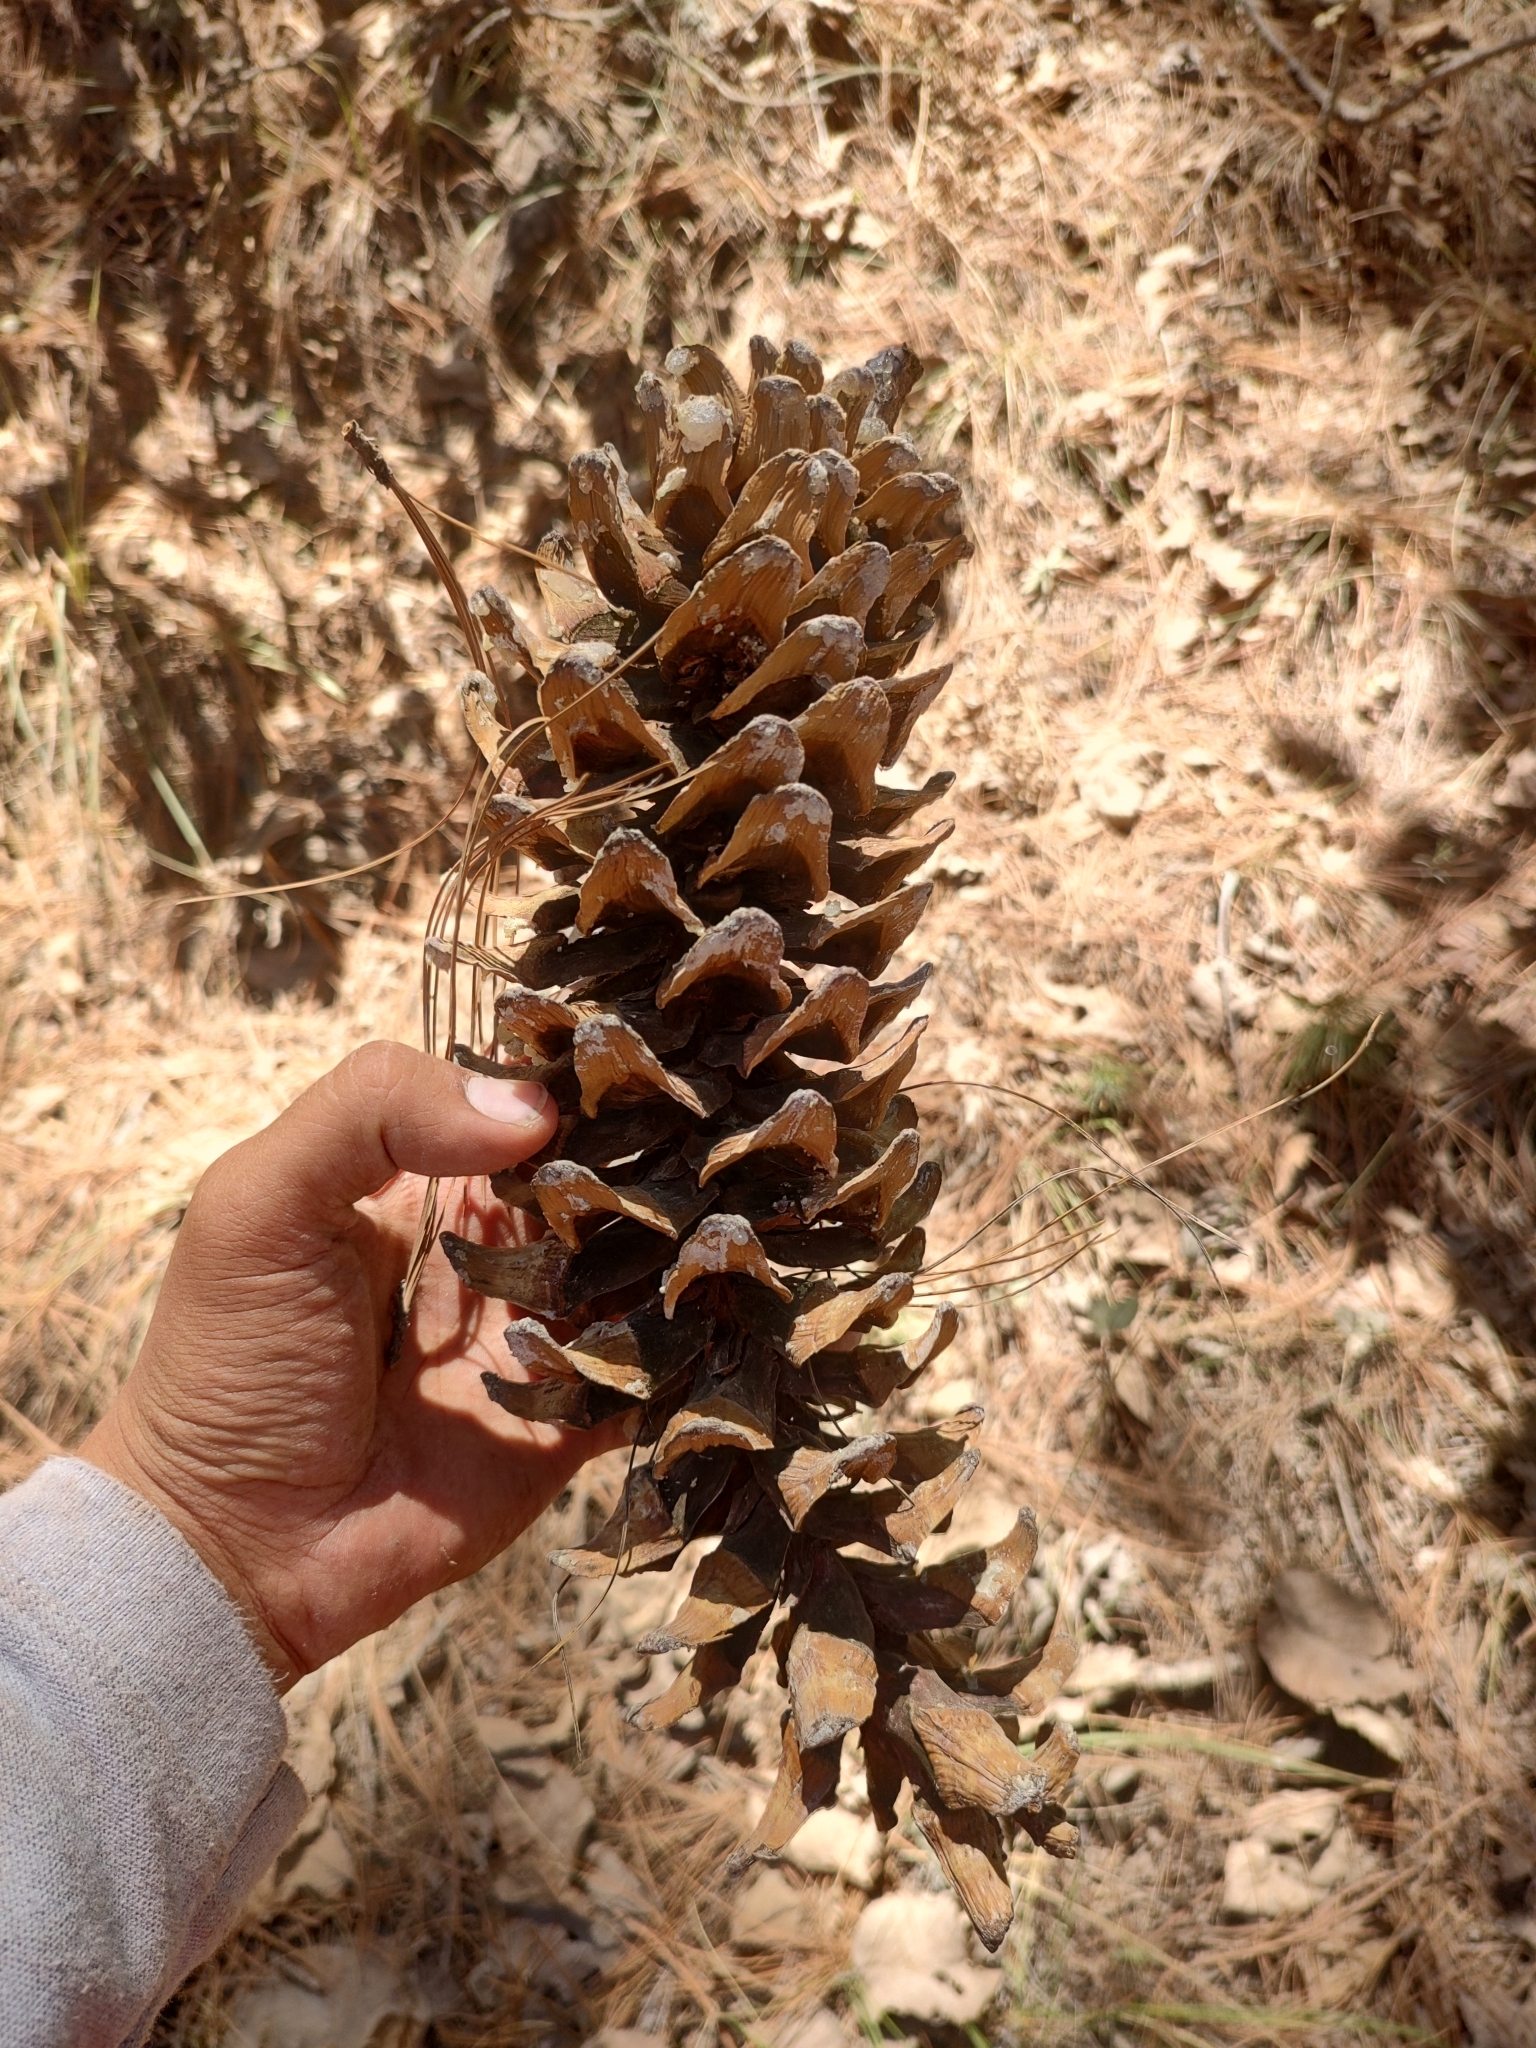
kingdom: Plantae
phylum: Tracheophyta
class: Pinopsida
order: Pinales
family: Pinaceae
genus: Pinus
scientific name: Pinus strobiformis
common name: Southwestern white pine
